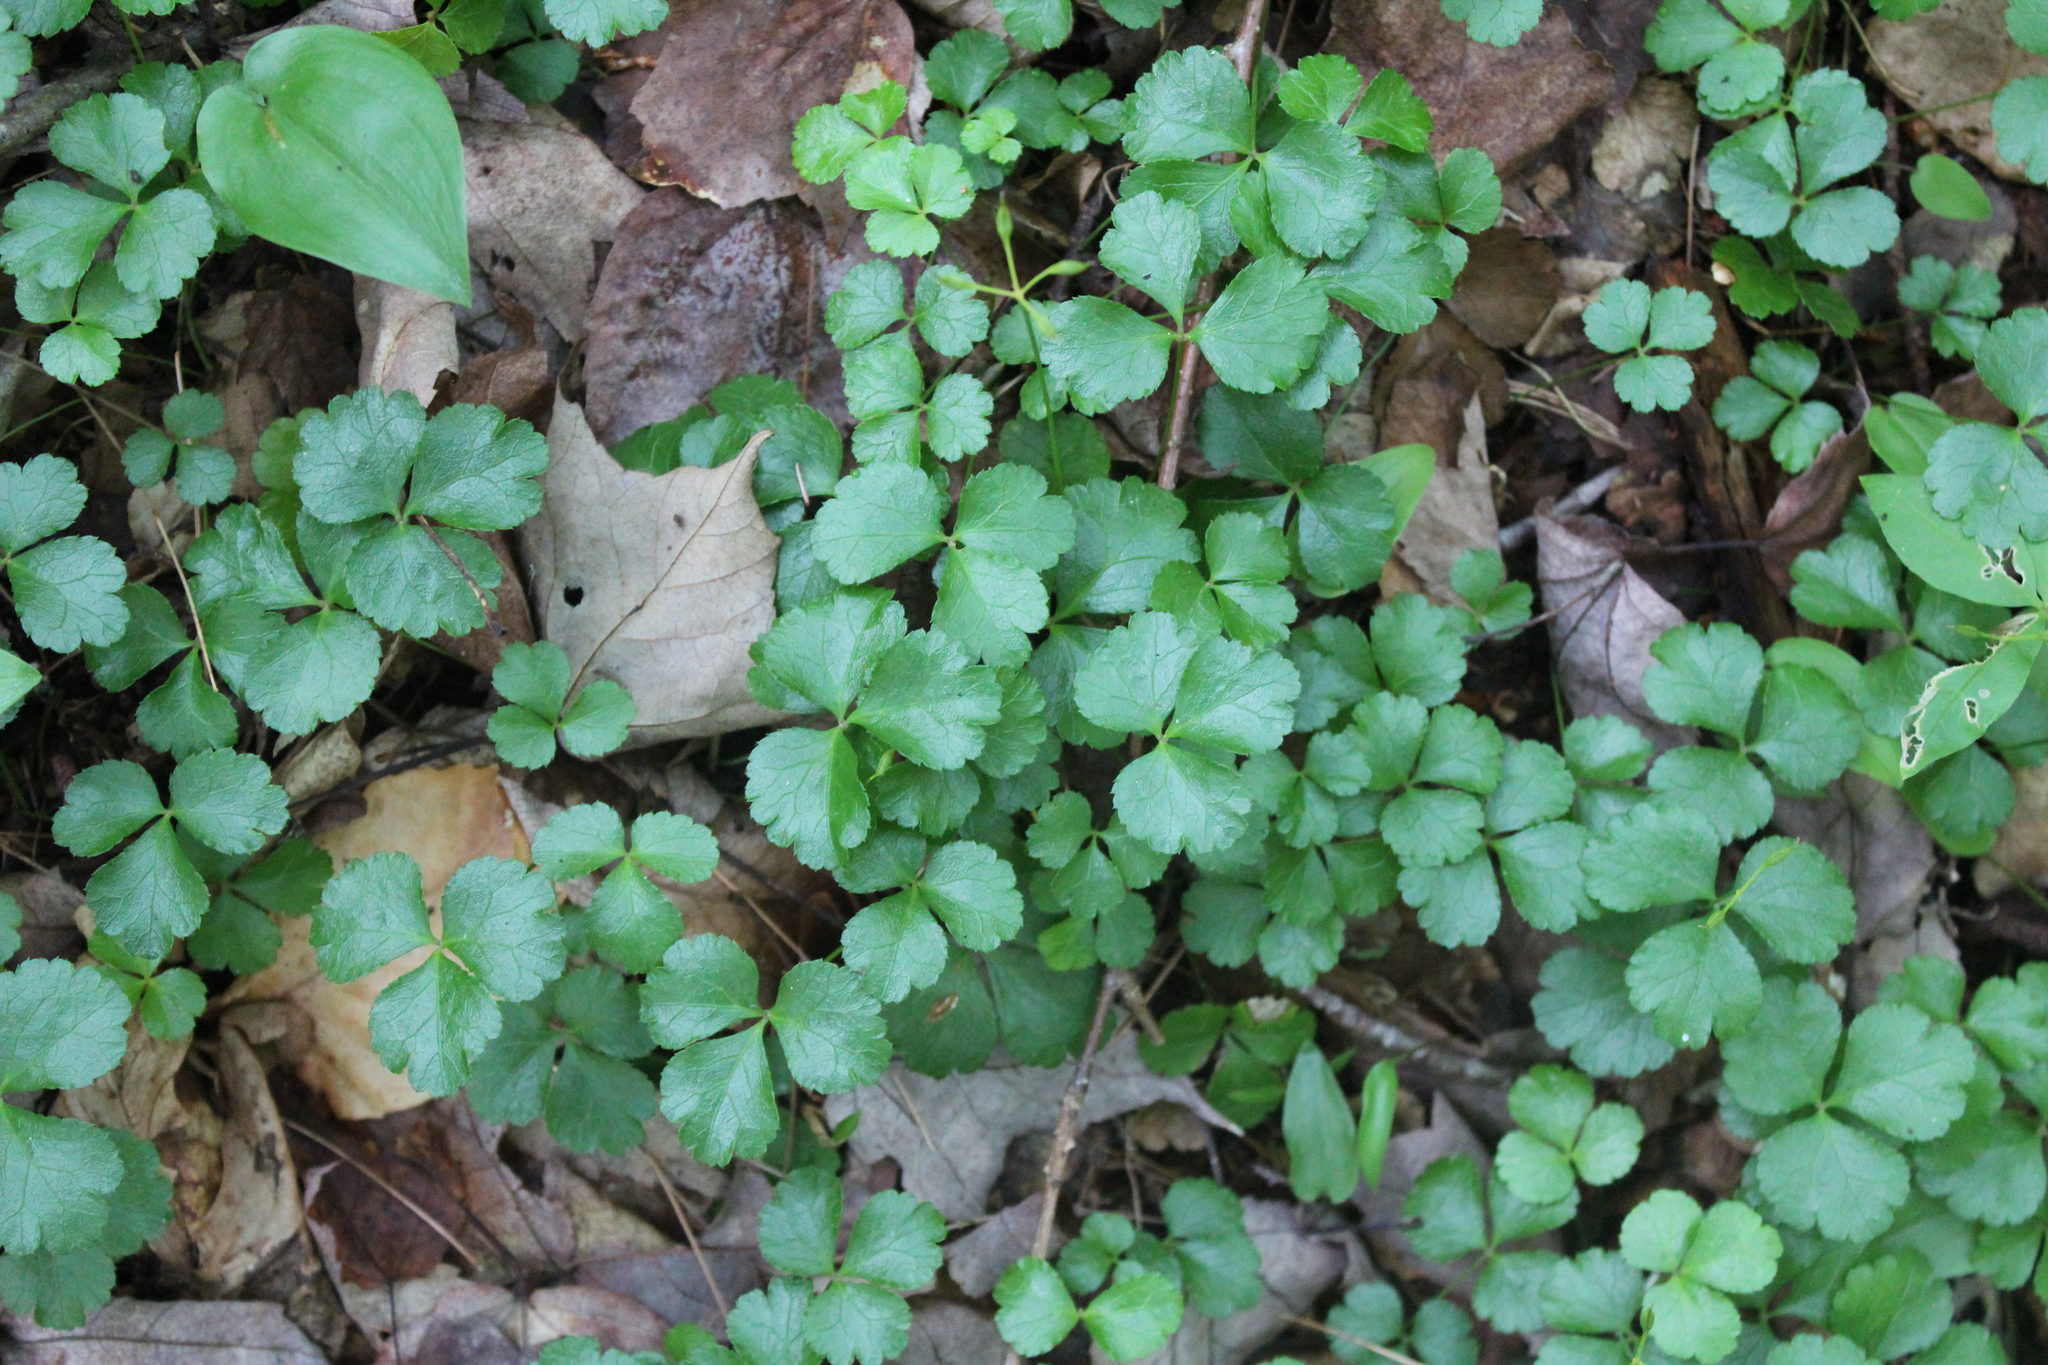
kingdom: Plantae
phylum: Tracheophyta
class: Magnoliopsida
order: Ranunculales
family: Ranunculaceae
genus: Coptis
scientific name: Coptis trifolia
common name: Canker-root
